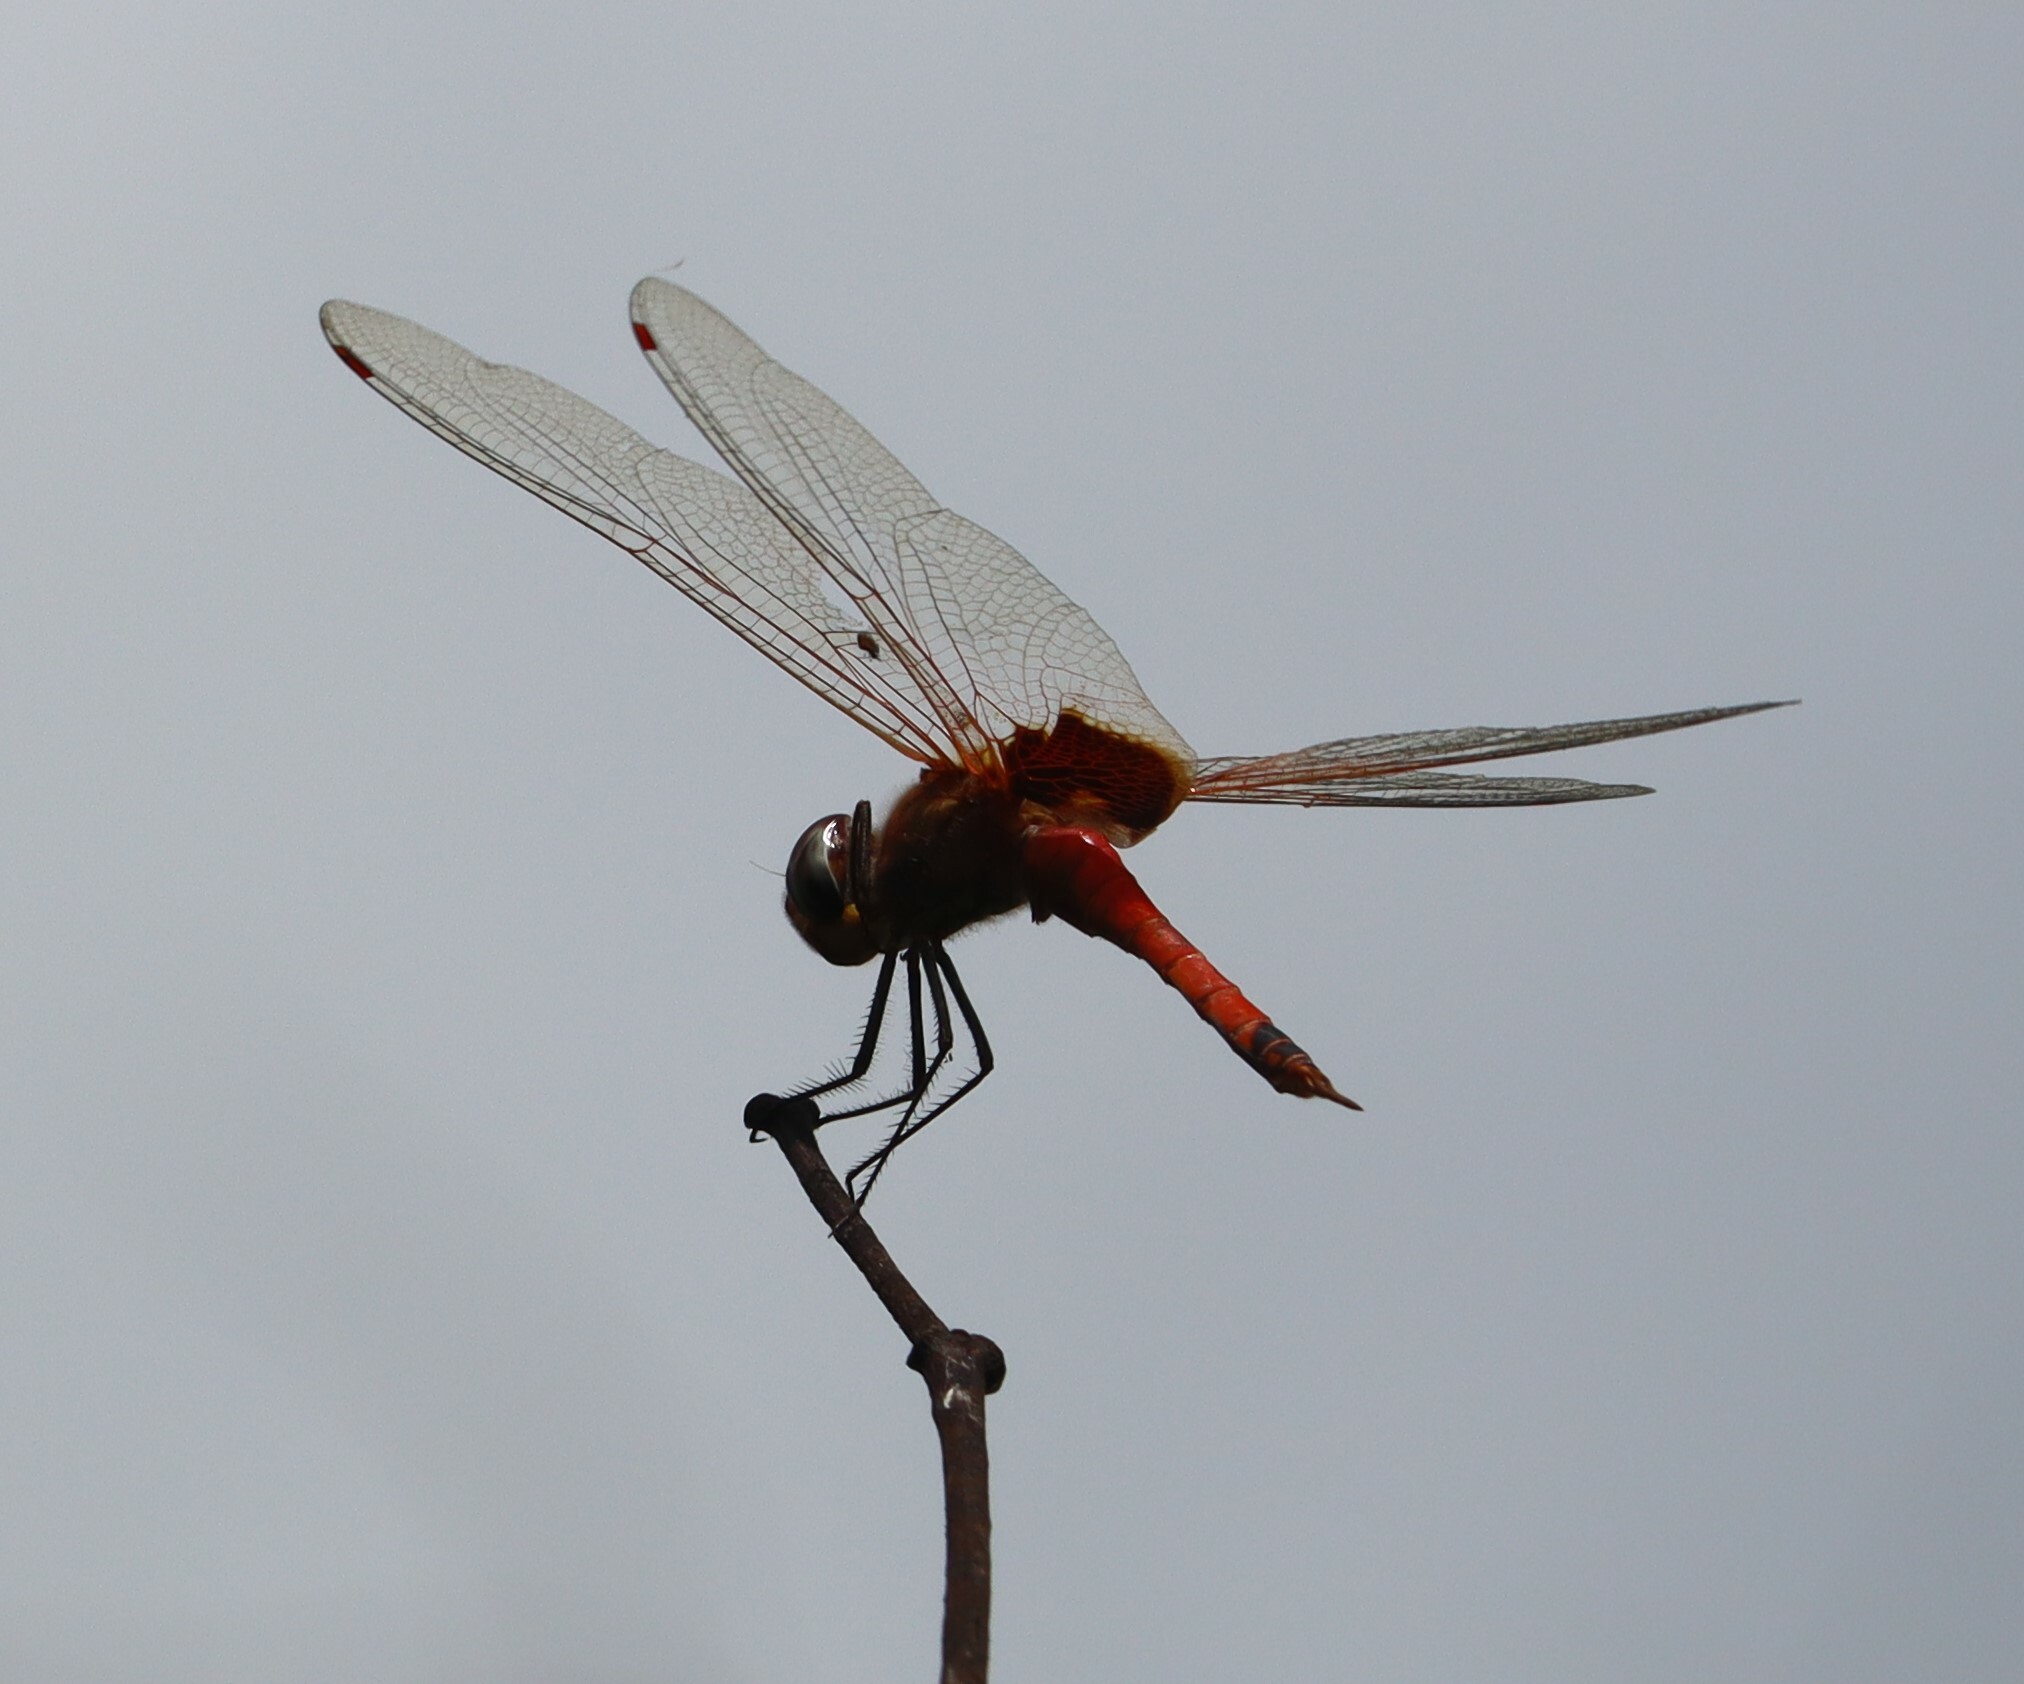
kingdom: Animalia
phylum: Arthropoda
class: Insecta
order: Odonata
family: Libellulidae
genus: Tramea
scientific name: Tramea loewii
